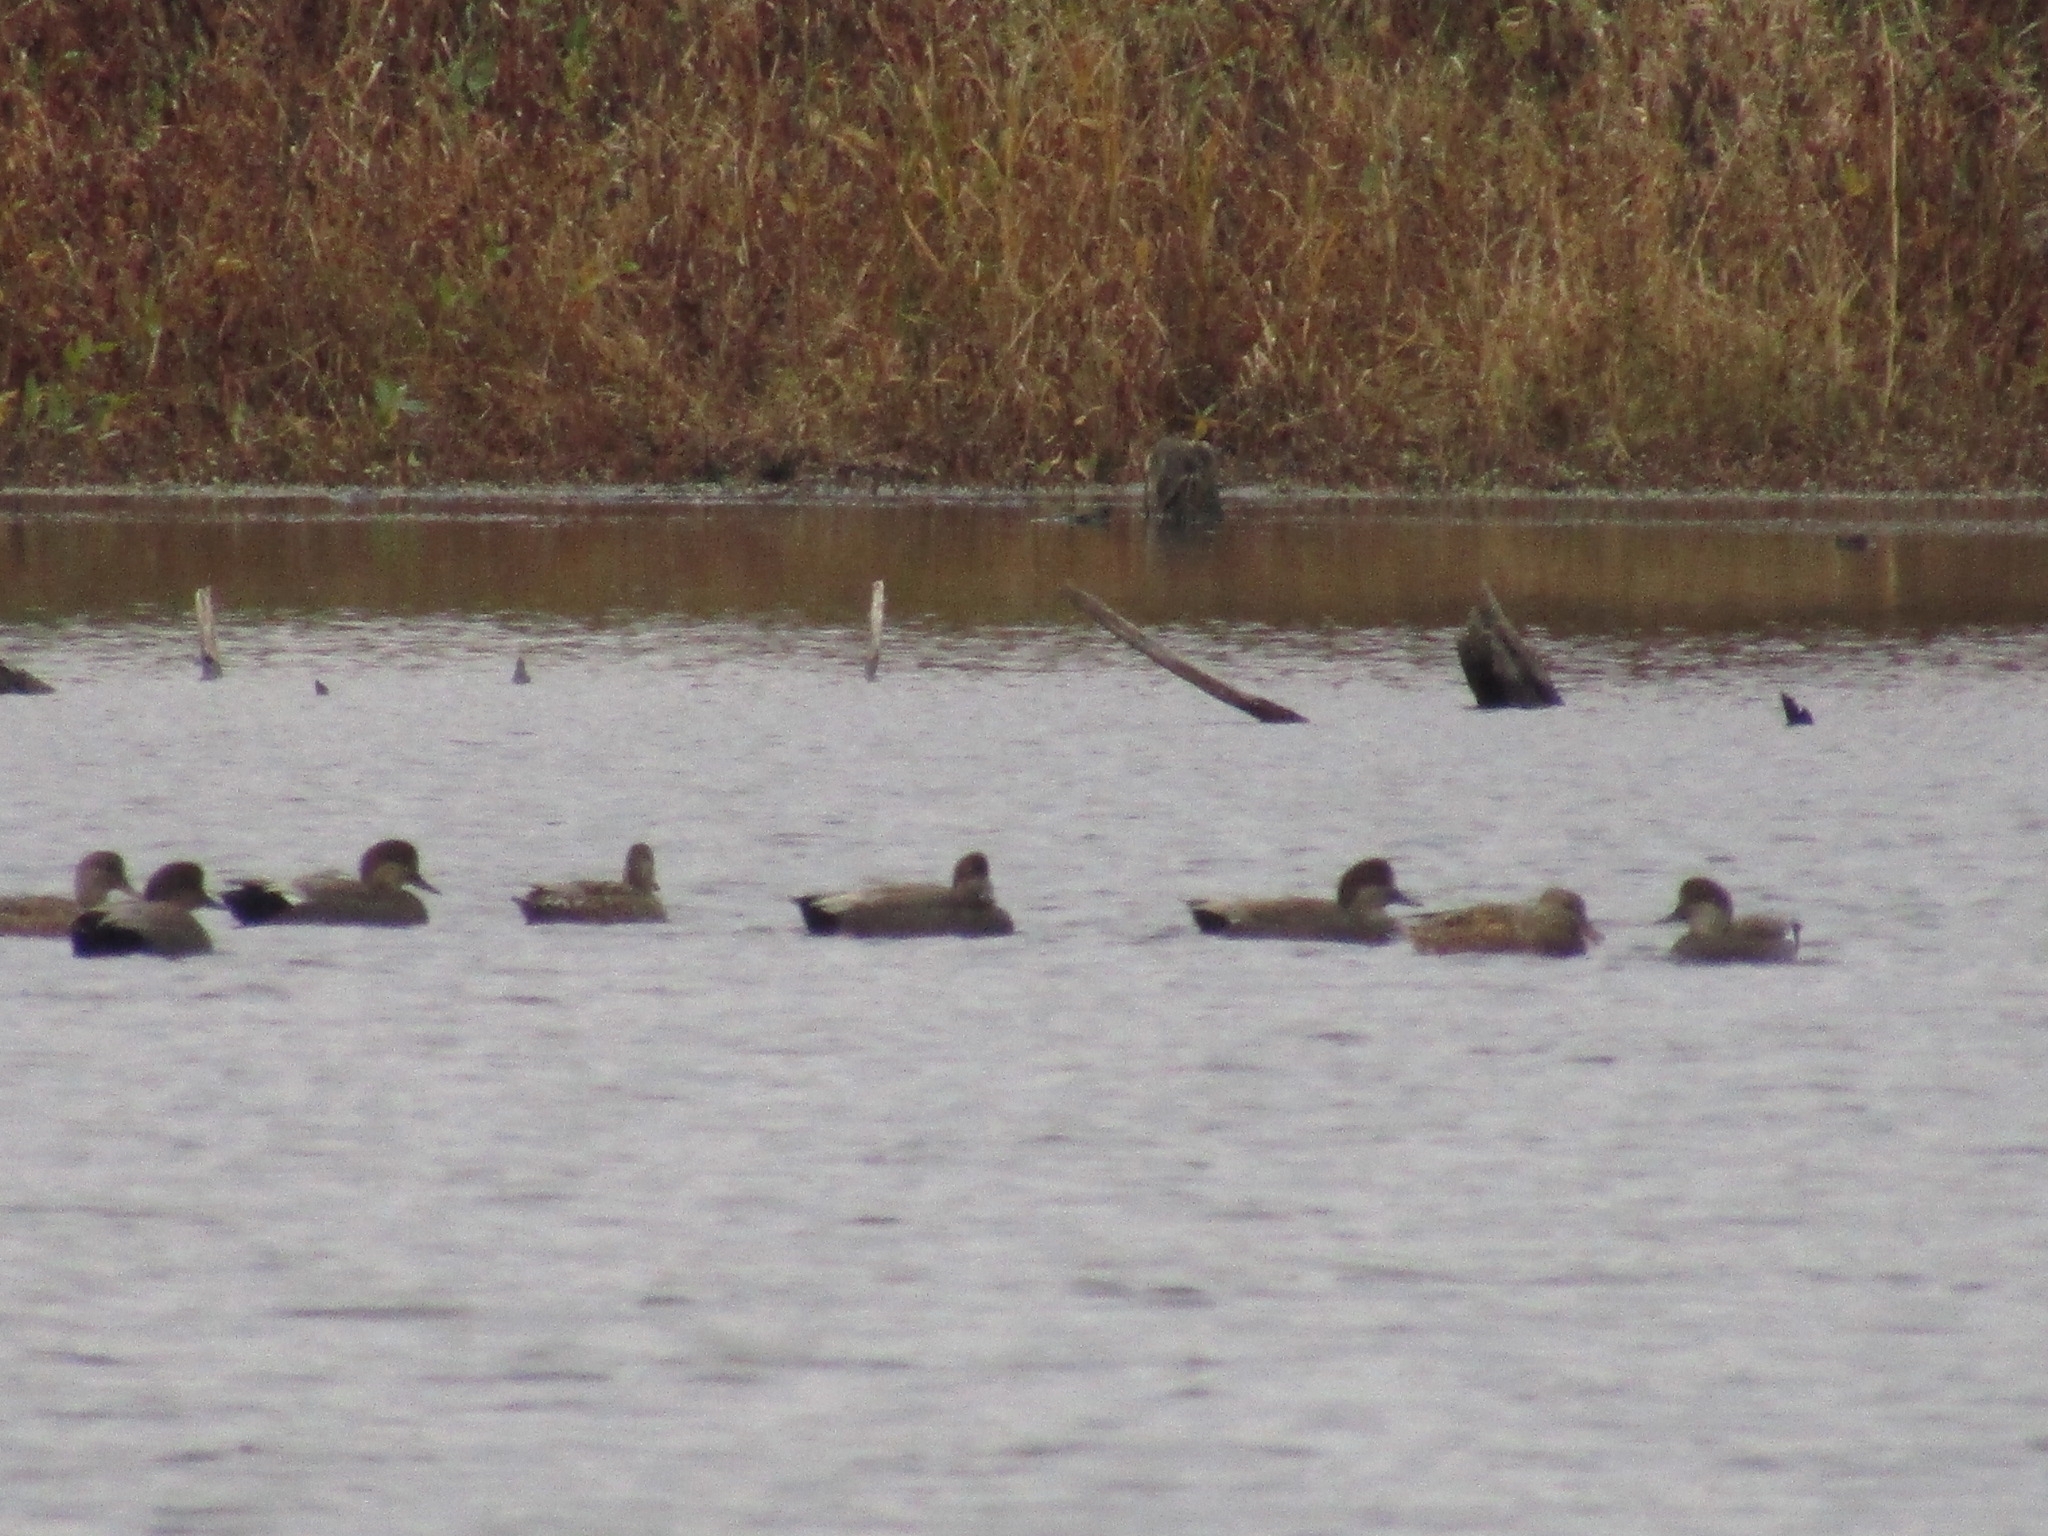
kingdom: Animalia
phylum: Chordata
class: Aves
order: Anseriformes
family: Anatidae
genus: Mareca
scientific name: Mareca strepera
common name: Gadwall
